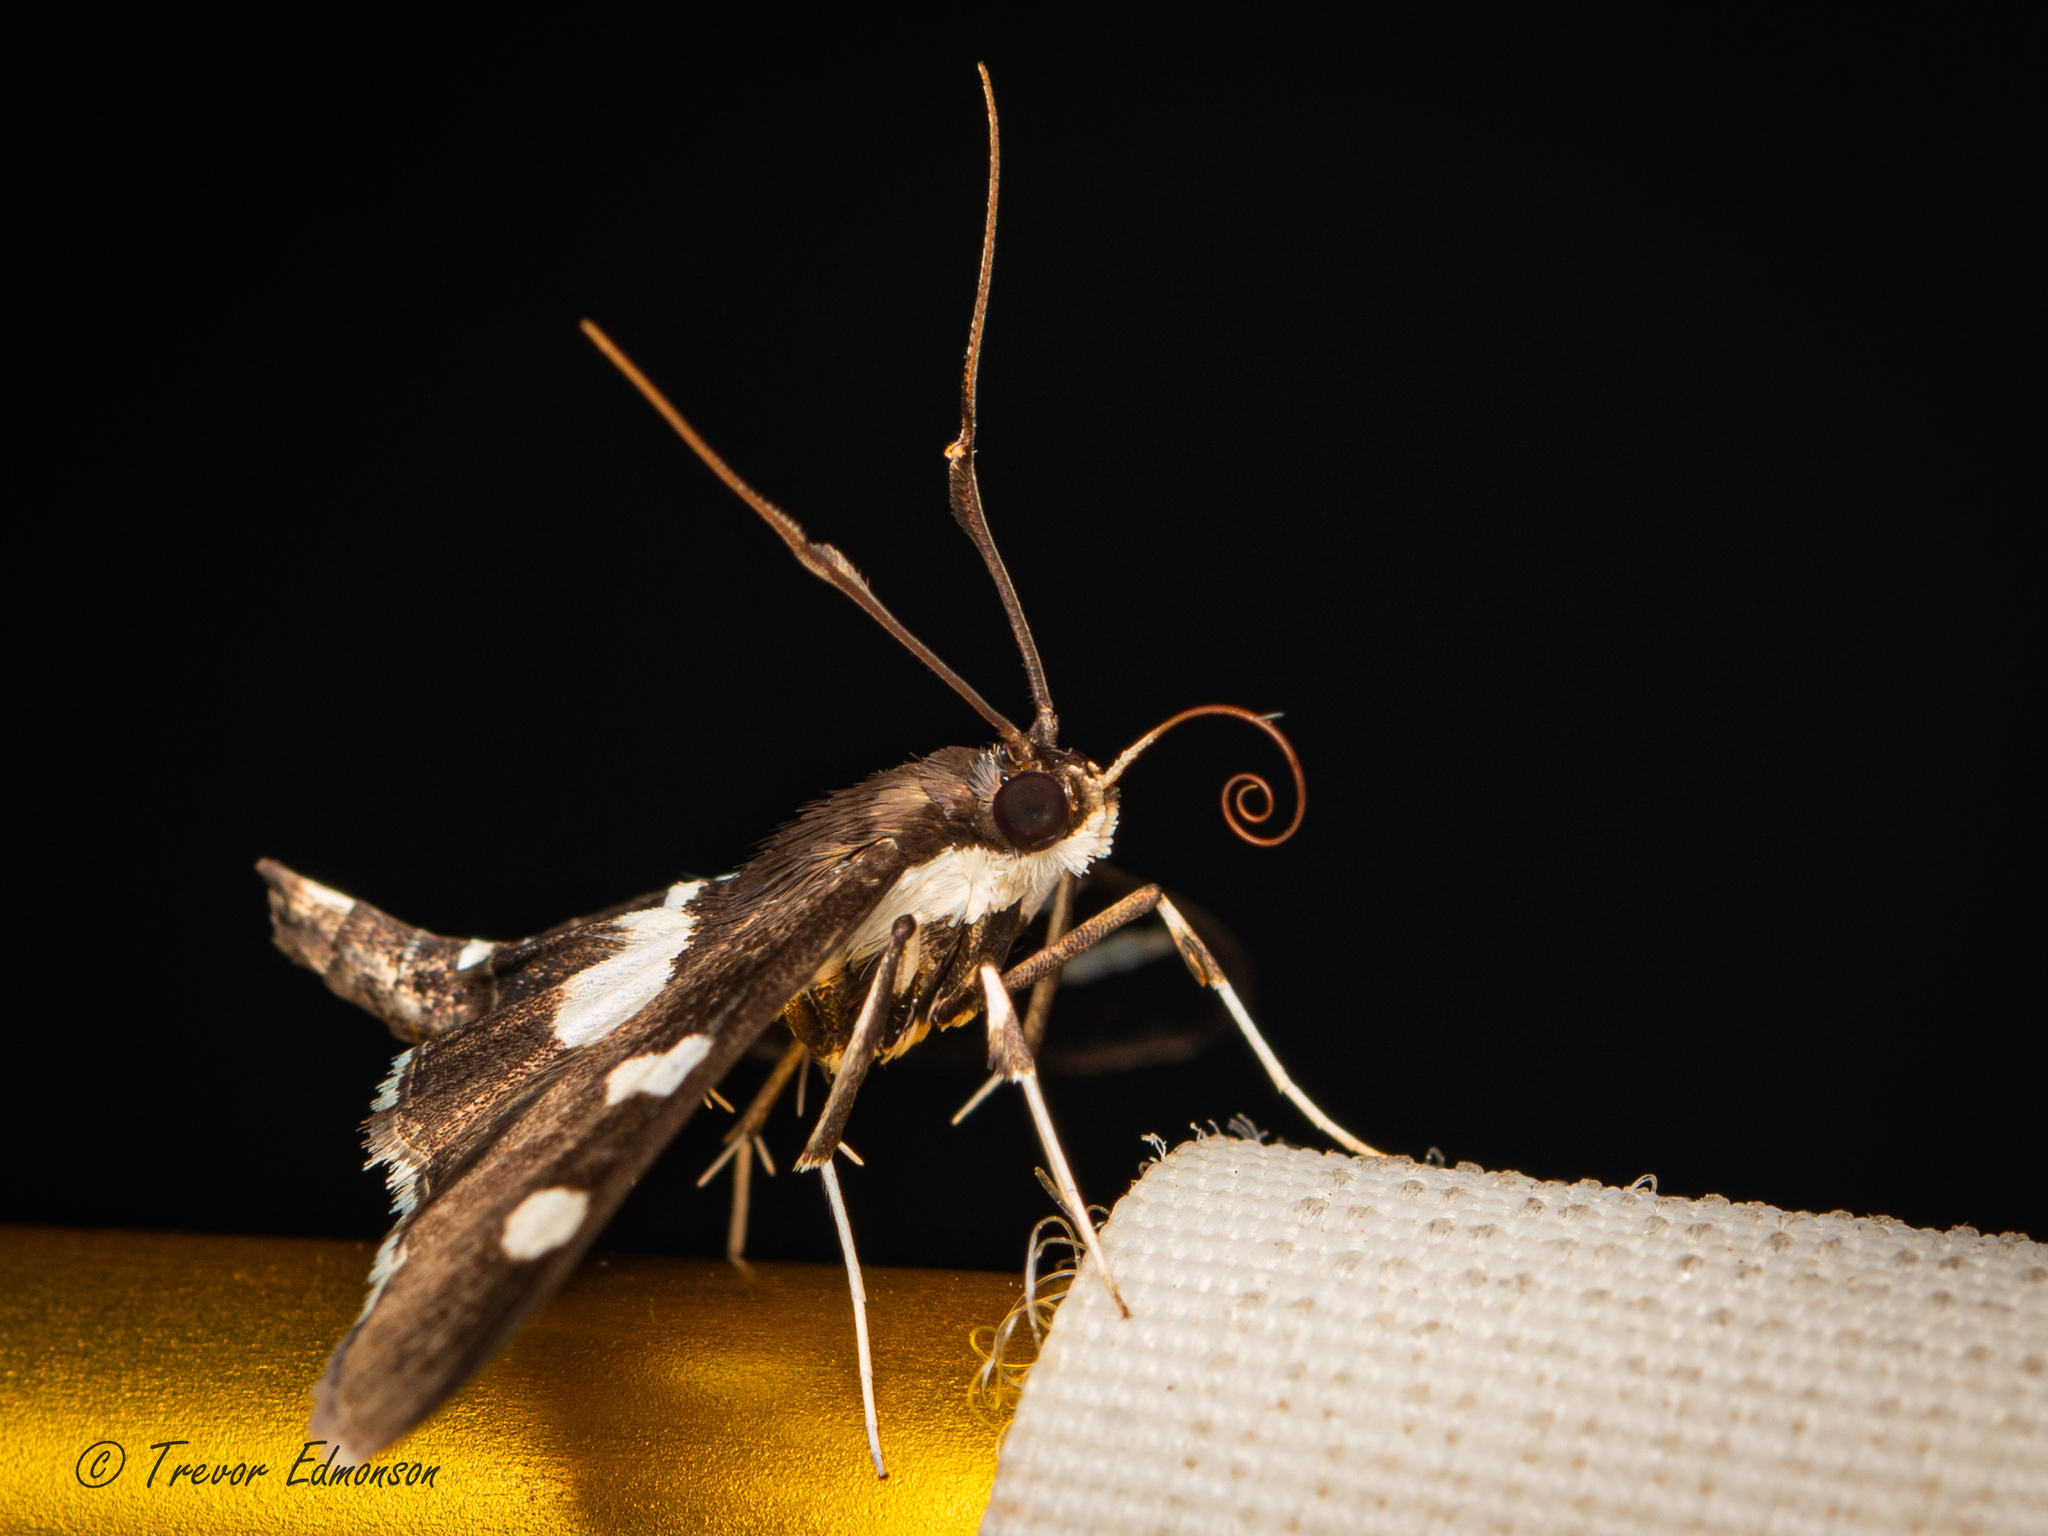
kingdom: Animalia
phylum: Arthropoda
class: Insecta
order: Lepidoptera
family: Crambidae
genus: Desmia
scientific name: Desmia
